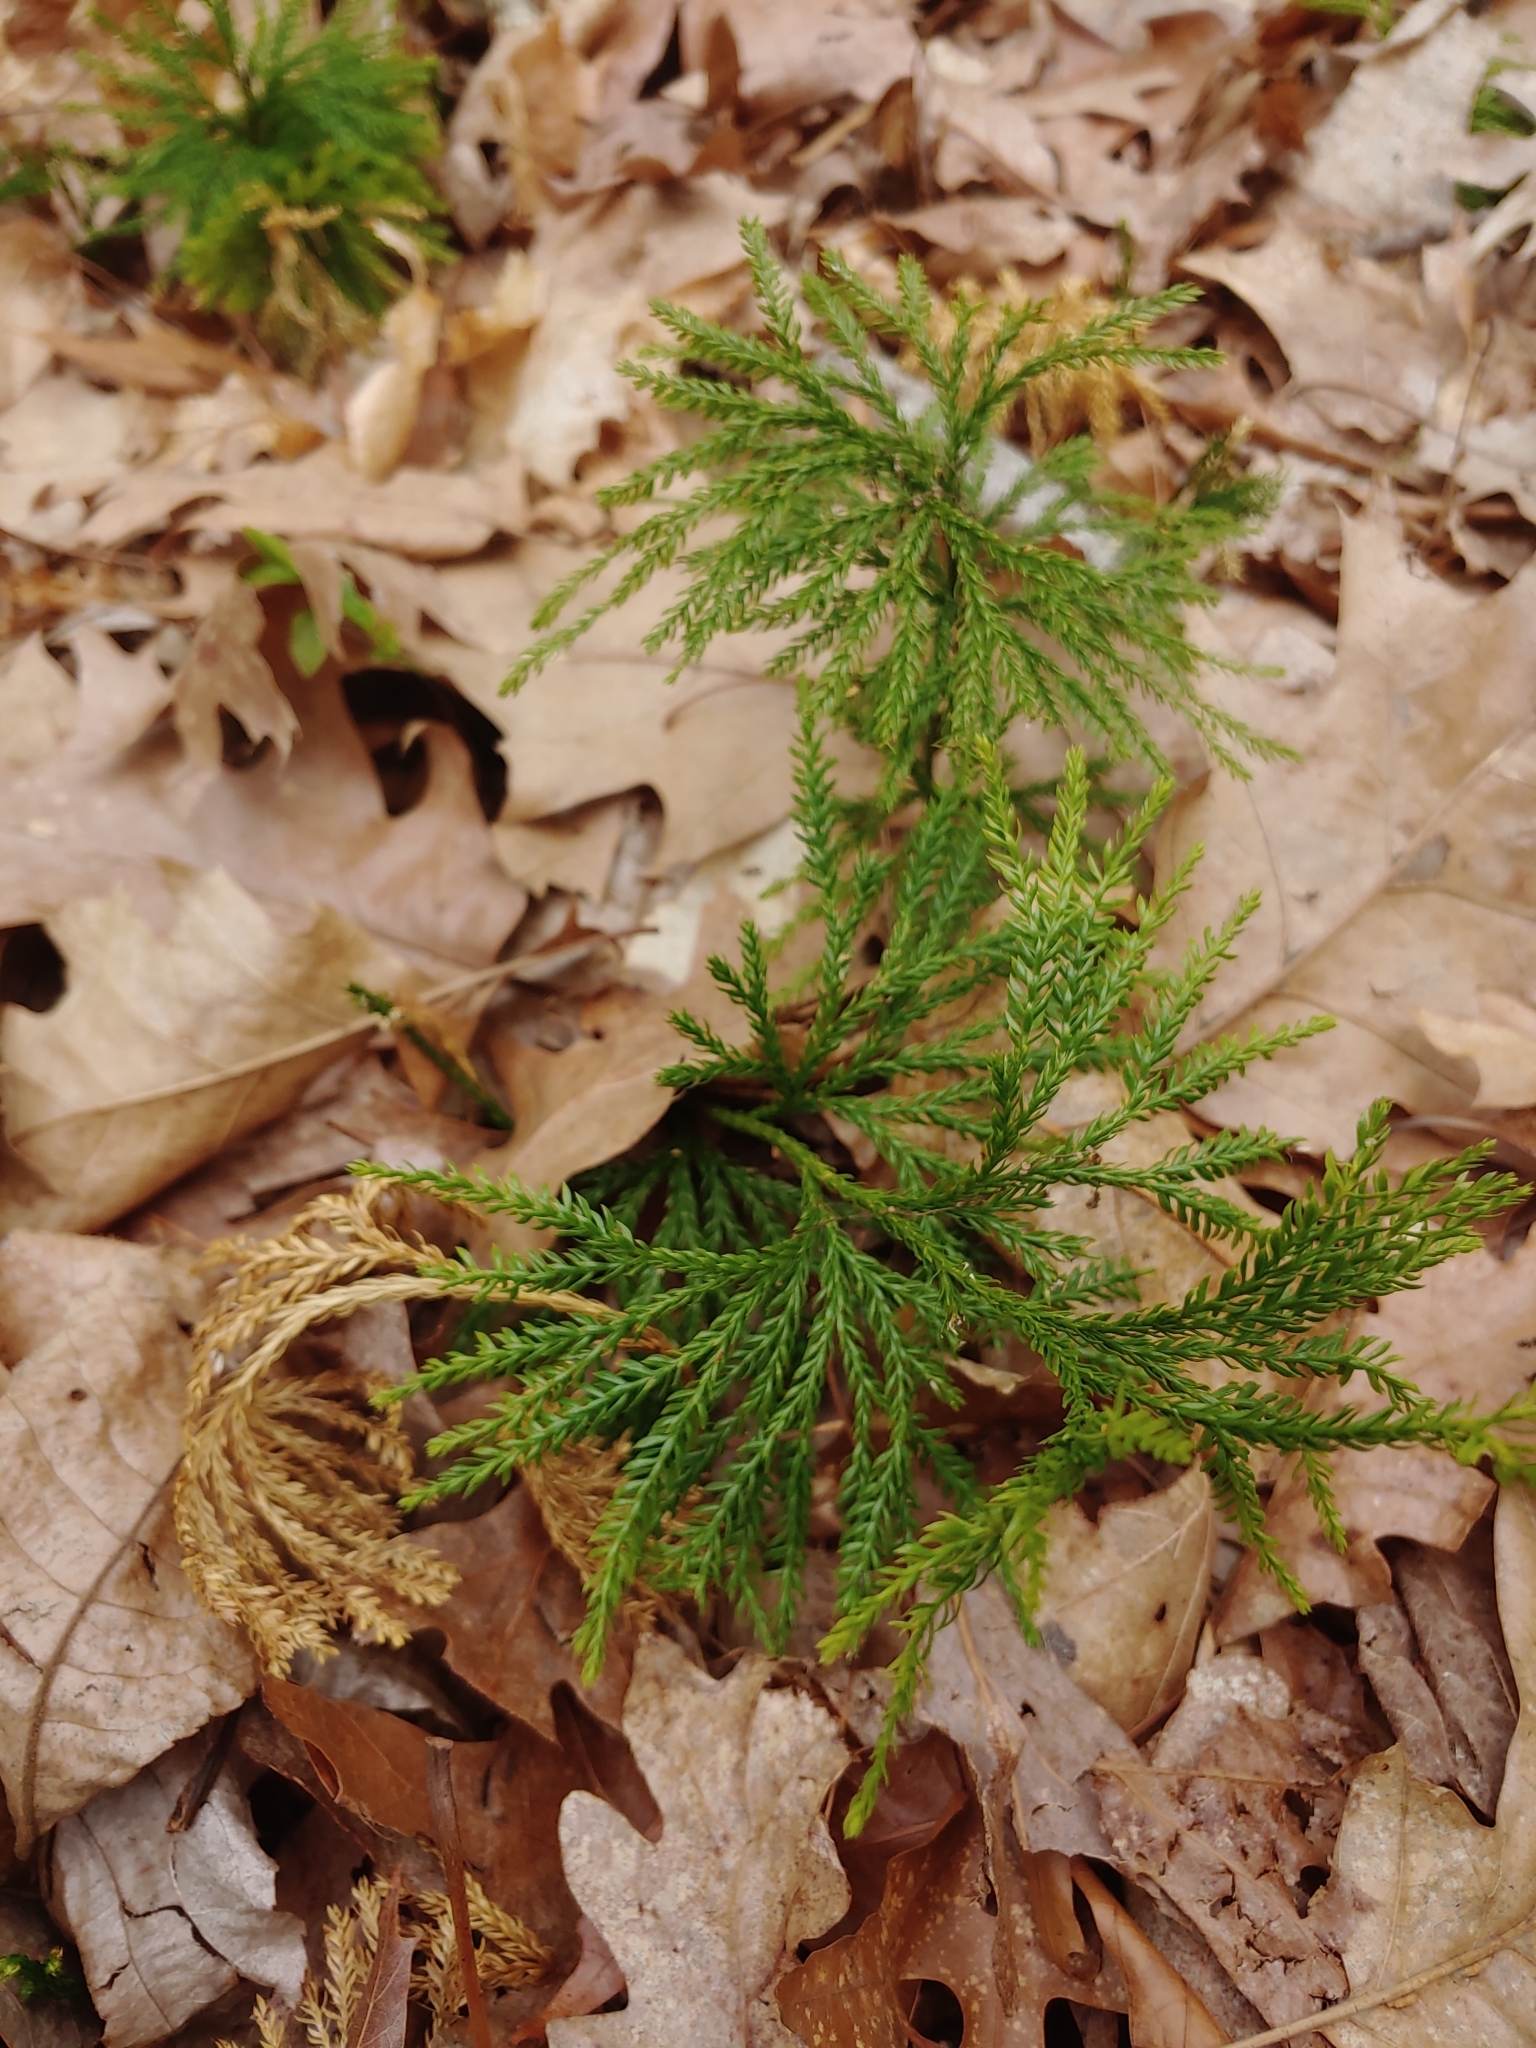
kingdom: Plantae
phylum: Tracheophyta
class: Lycopodiopsida
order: Lycopodiales
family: Lycopodiaceae
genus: Dendrolycopodium
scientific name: Dendrolycopodium obscurum
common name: Common ground-pine
